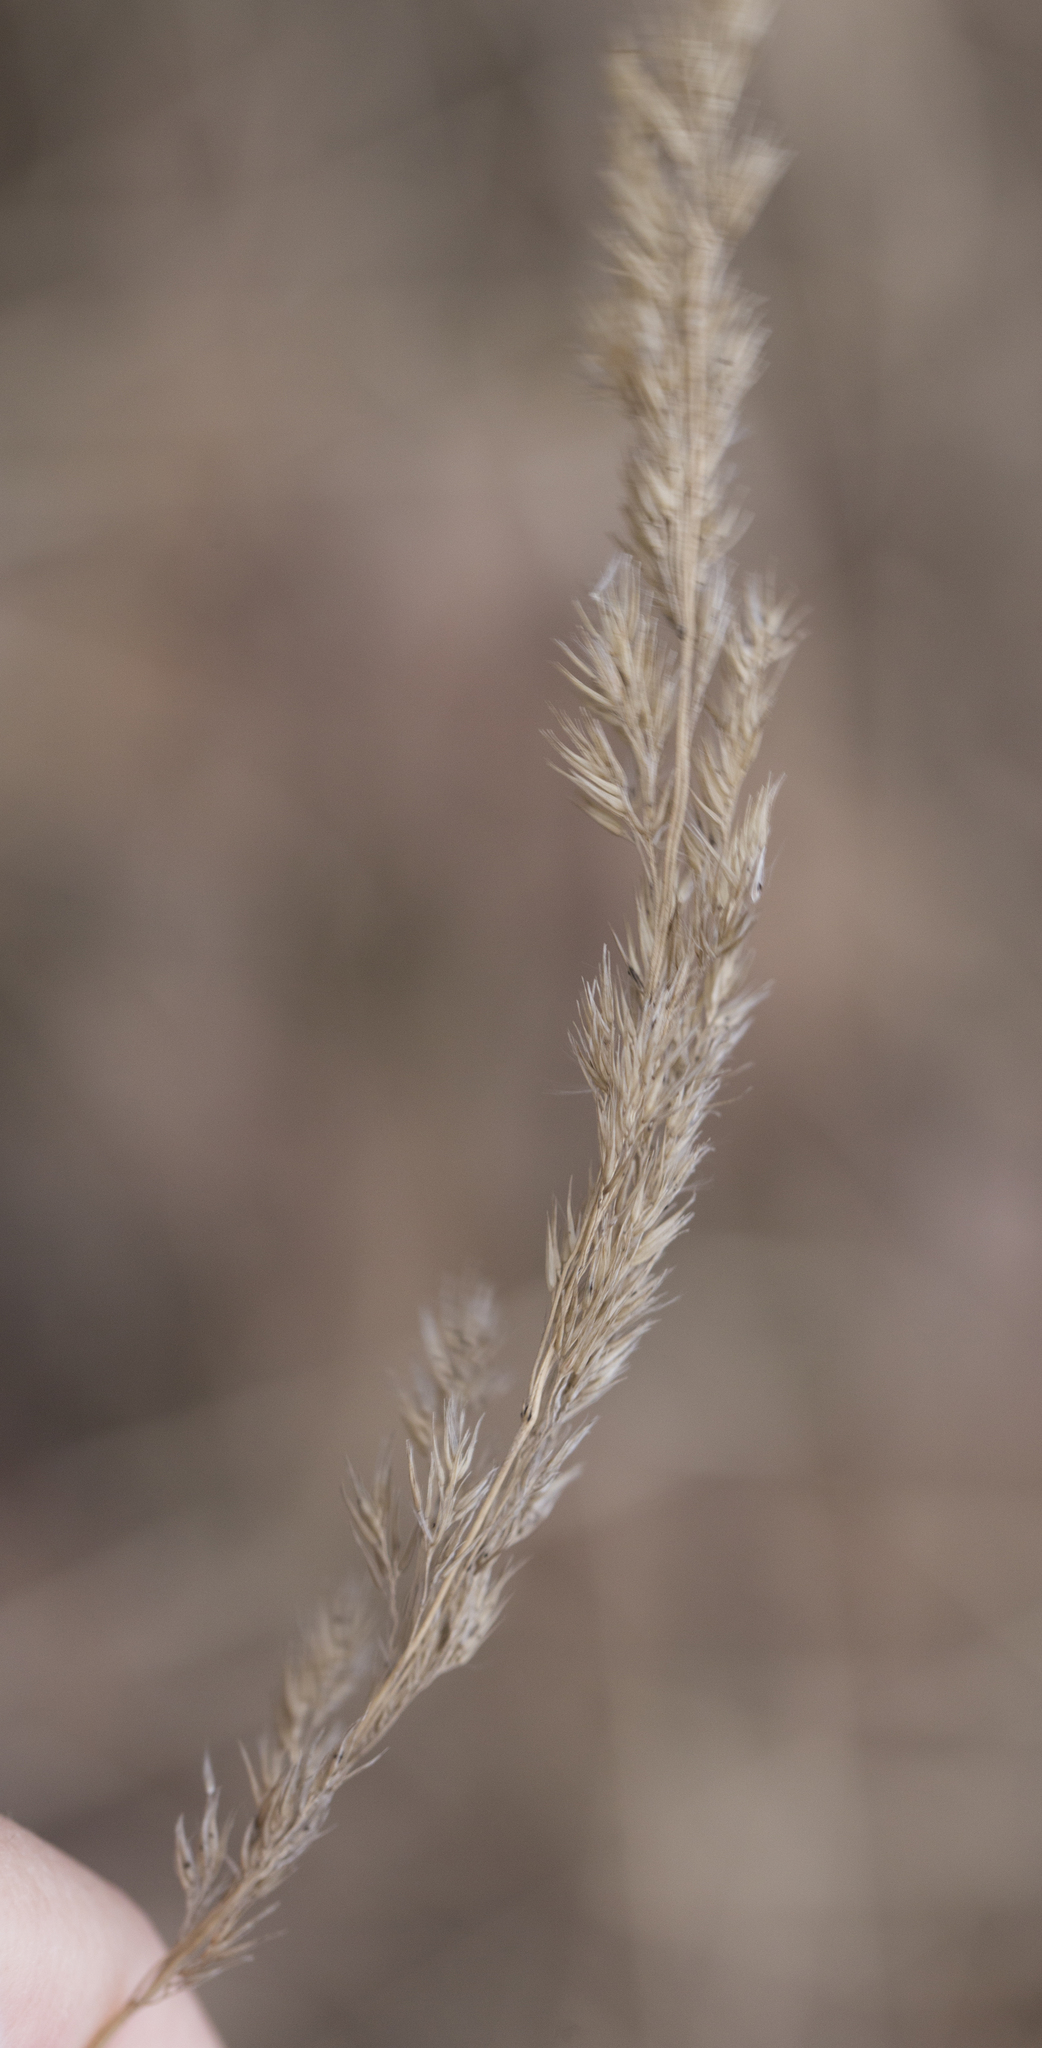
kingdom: Plantae
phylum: Tracheophyta
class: Liliopsida
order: Poales
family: Poaceae
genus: Calamagrostis
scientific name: Calamagrostis epigejos
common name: Wood small-reed
